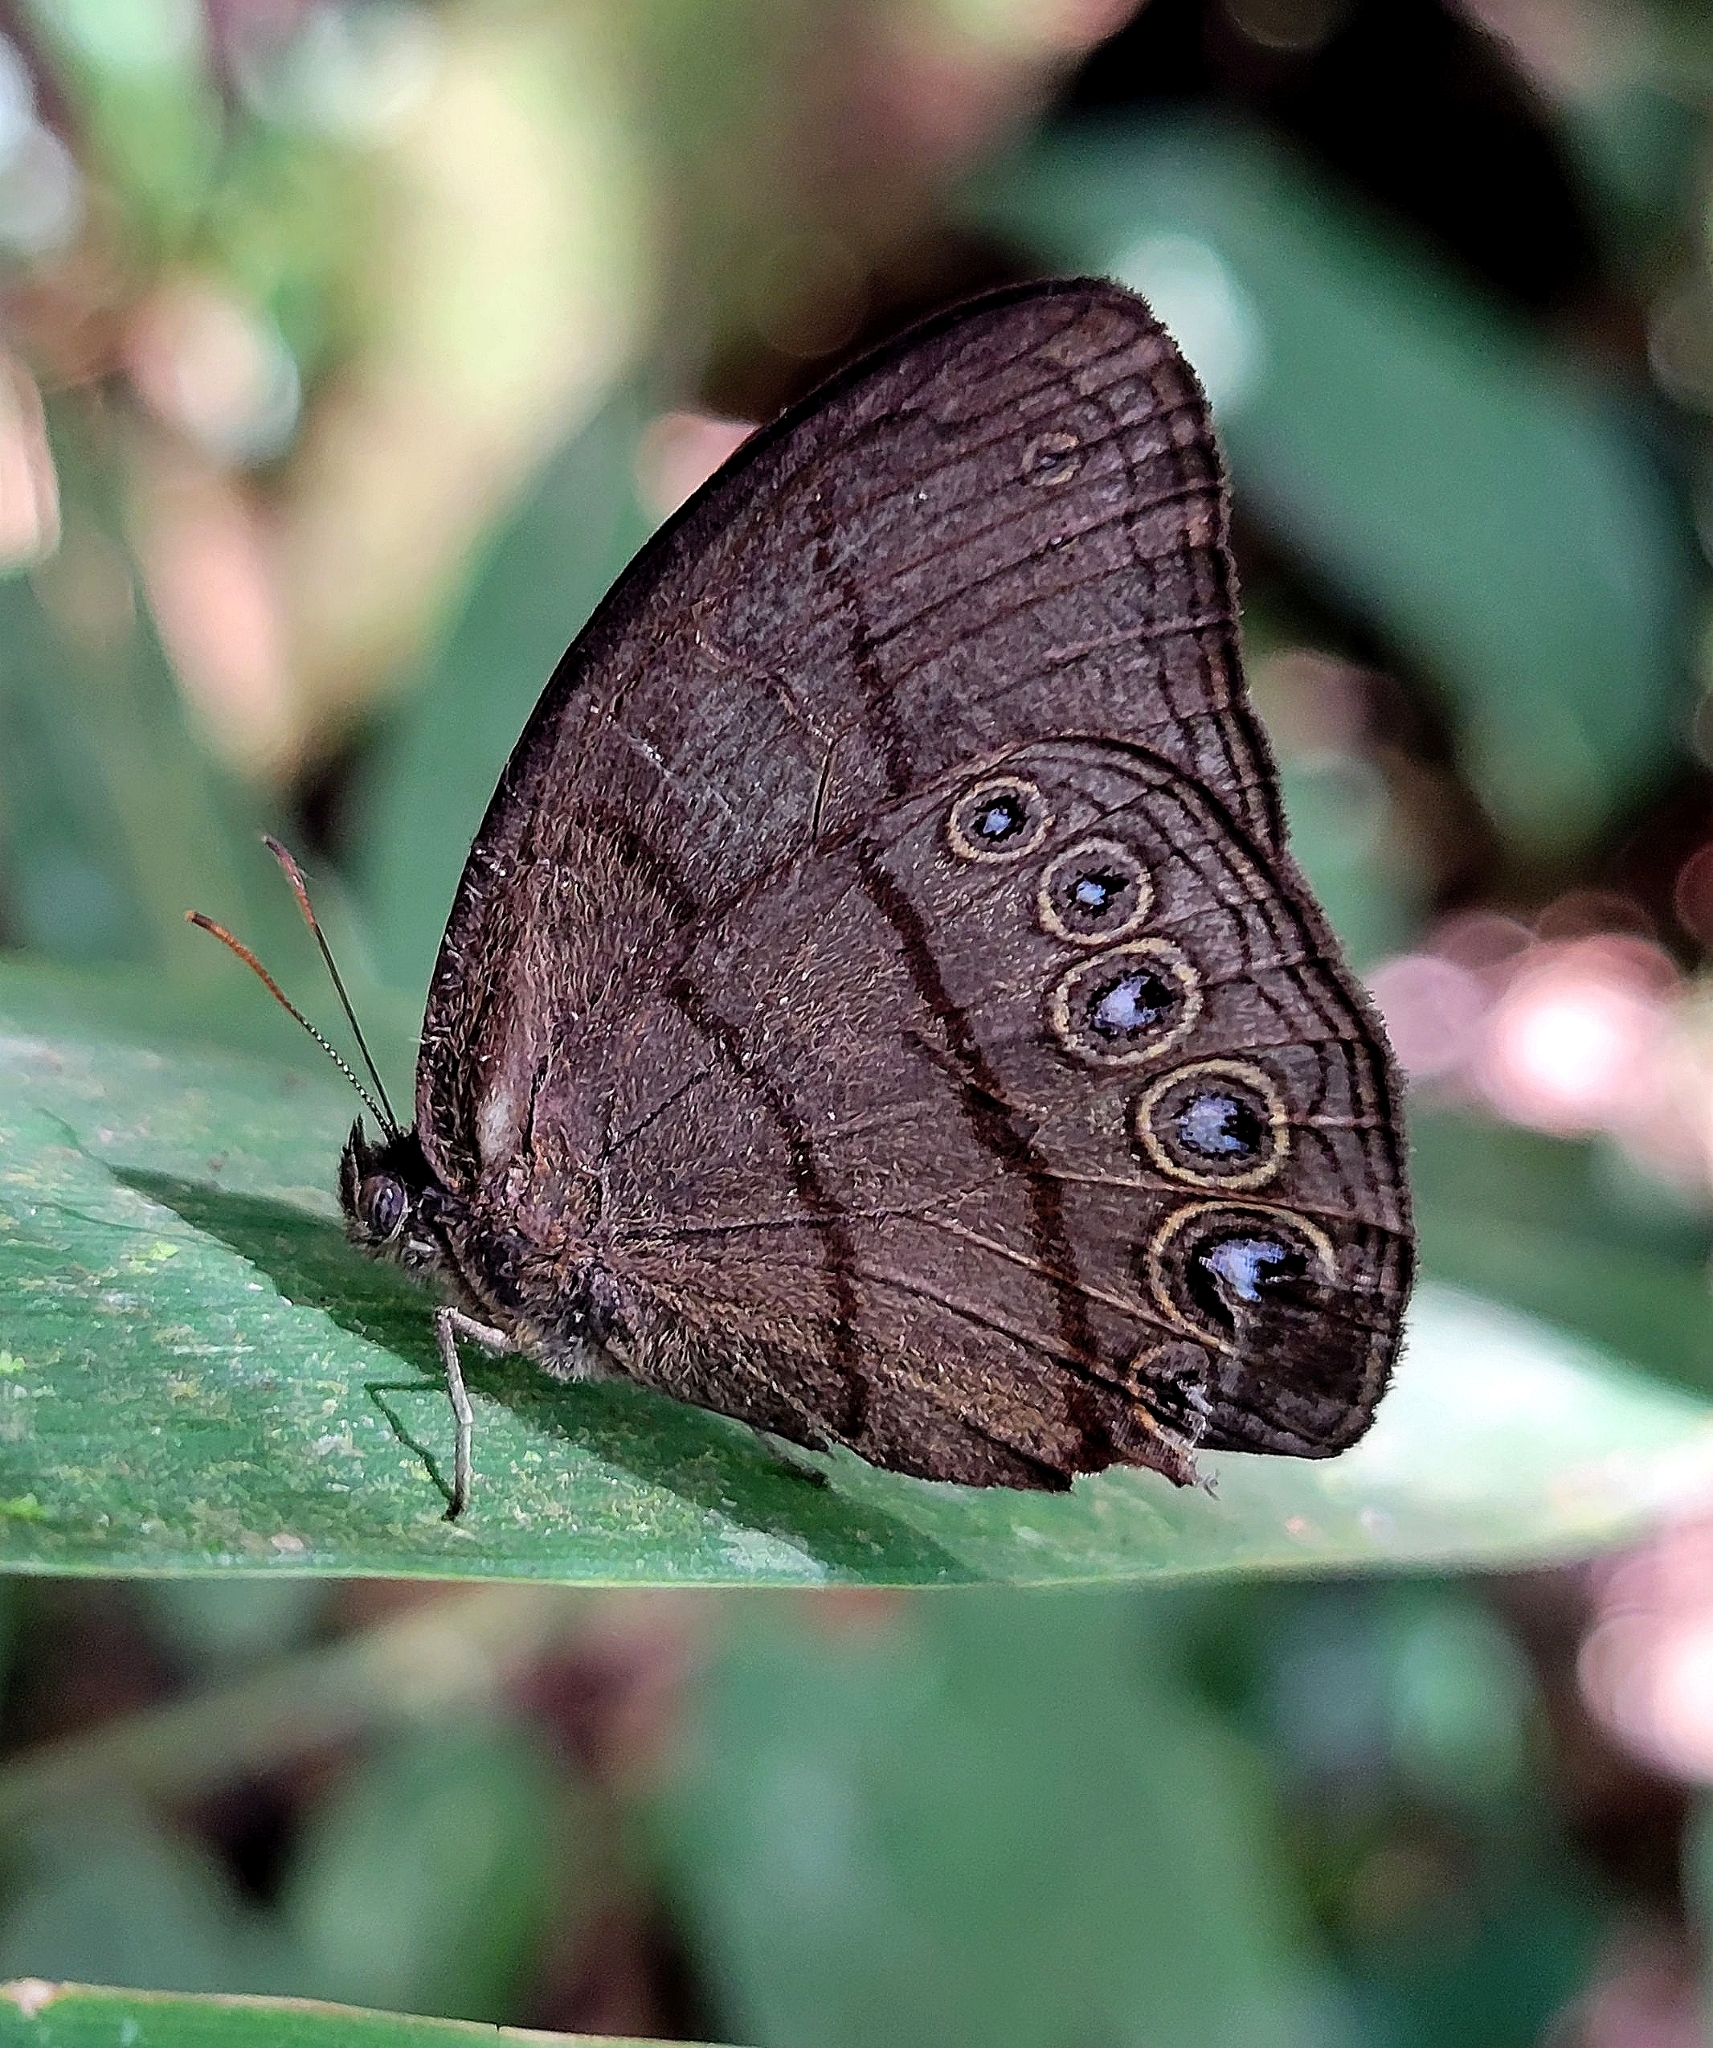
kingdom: Animalia
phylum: Arthropoda
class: Insecta
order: Lepidoptera
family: Nymphalidae
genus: Erichthodes
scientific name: Erichthodes erichtho
